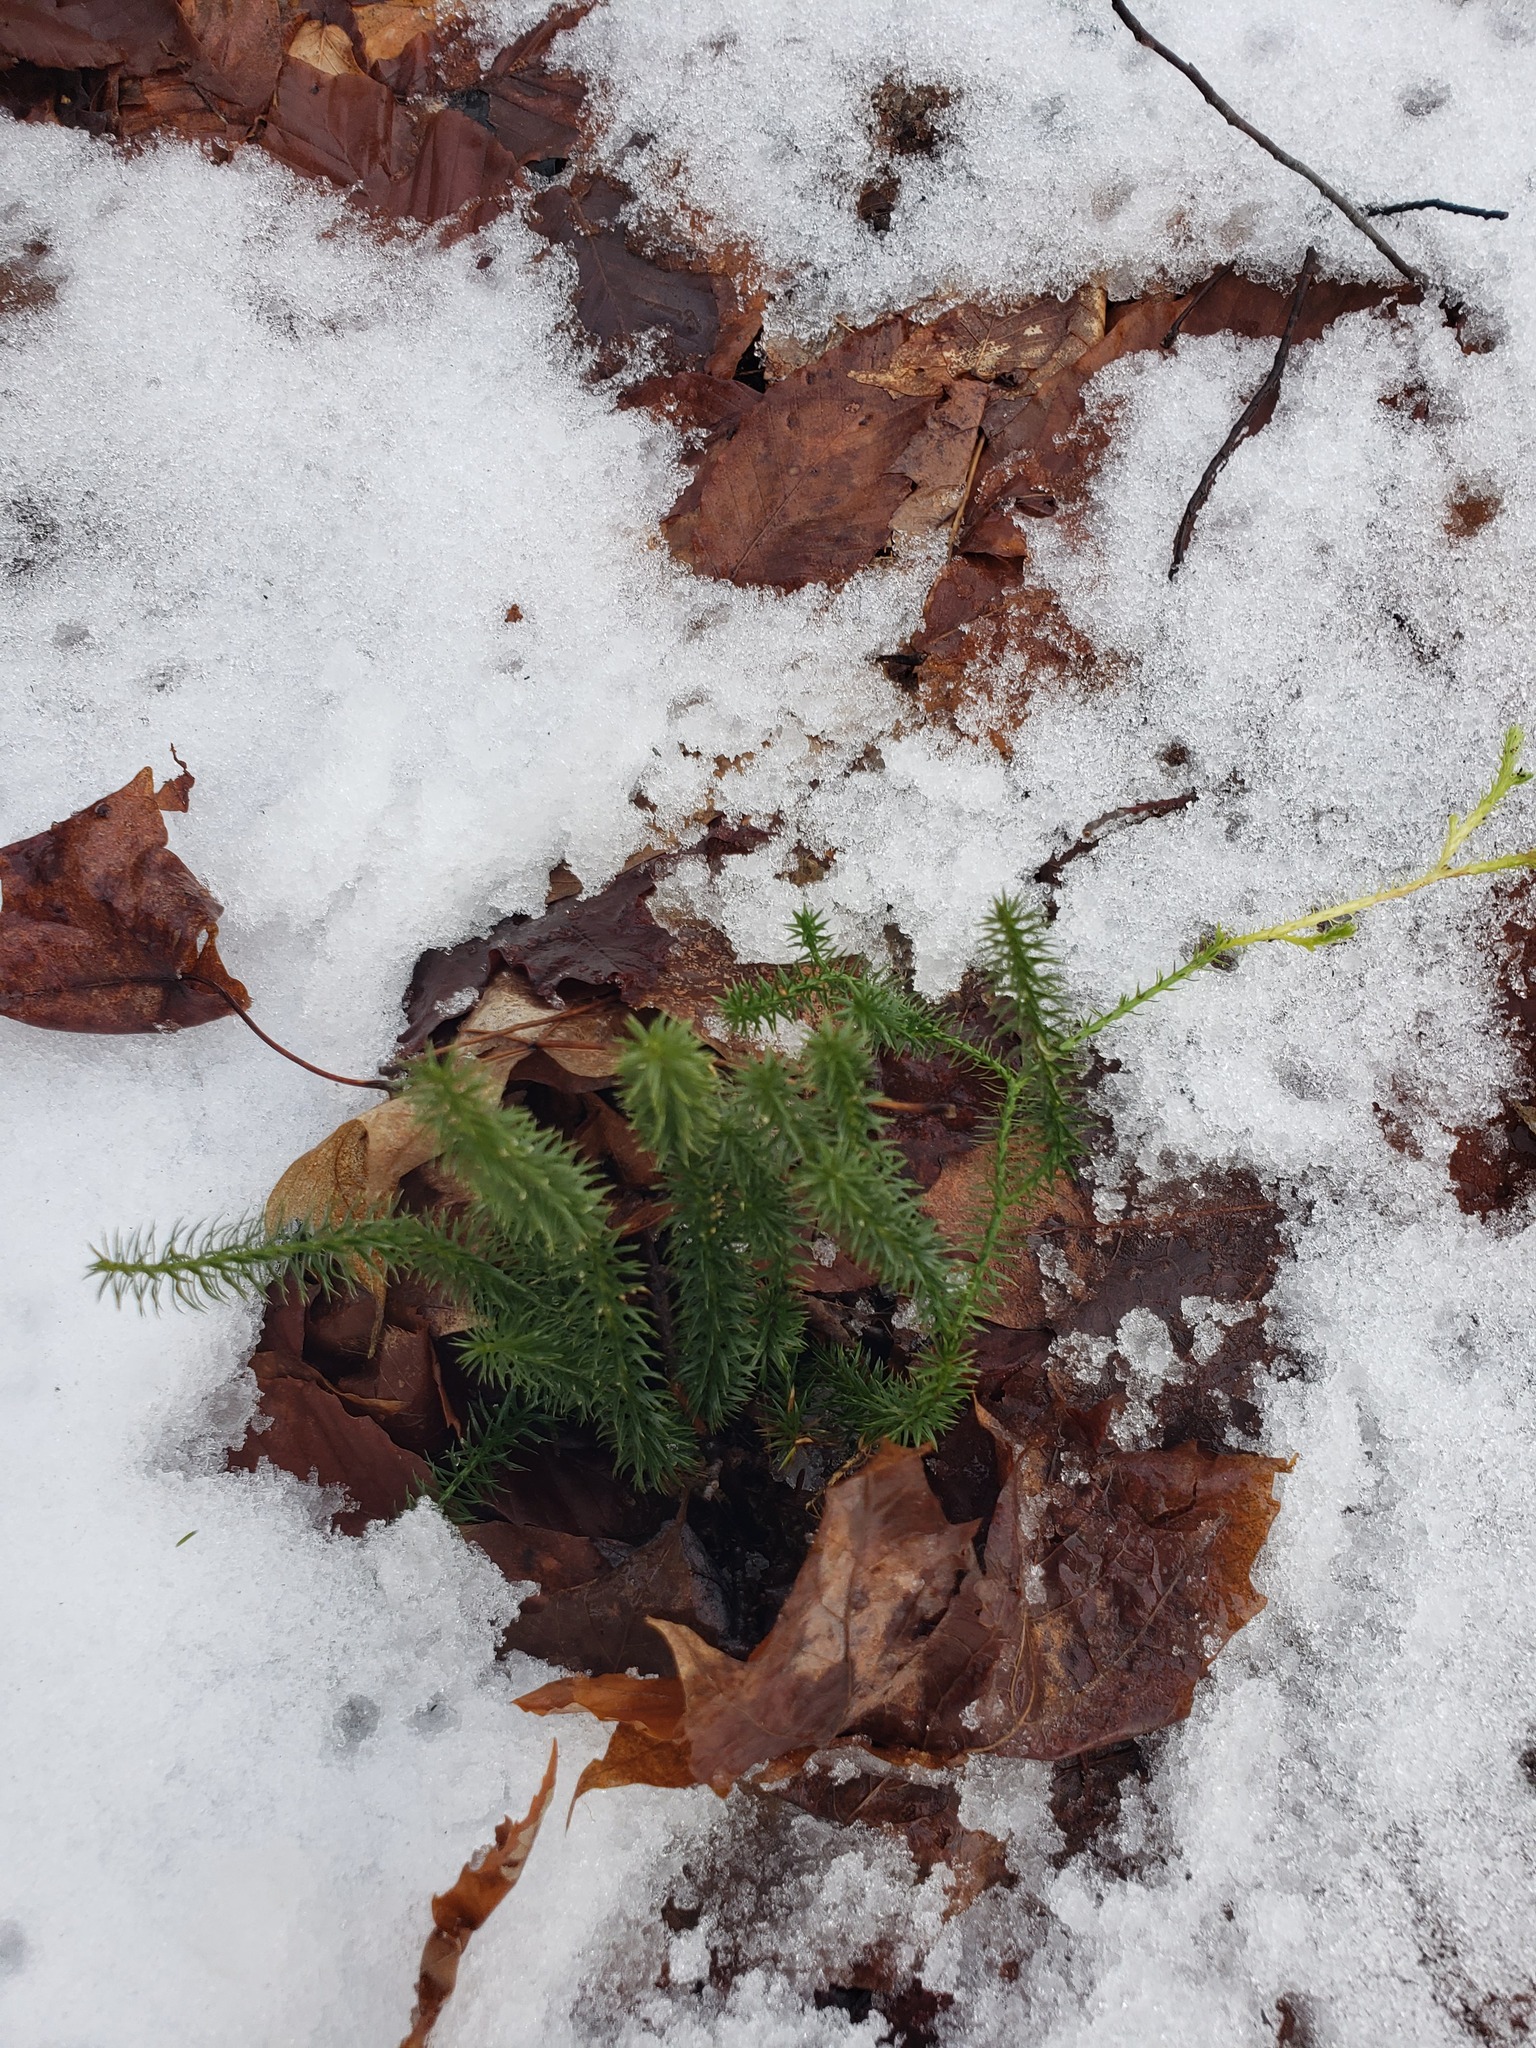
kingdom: Plantae
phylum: Tracheophyta
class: Lycopodiopsida
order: Lycopodiales
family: Lycopodiaceae
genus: Spinulum
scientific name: Spinulum annotinum
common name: Interrupted club-moss
